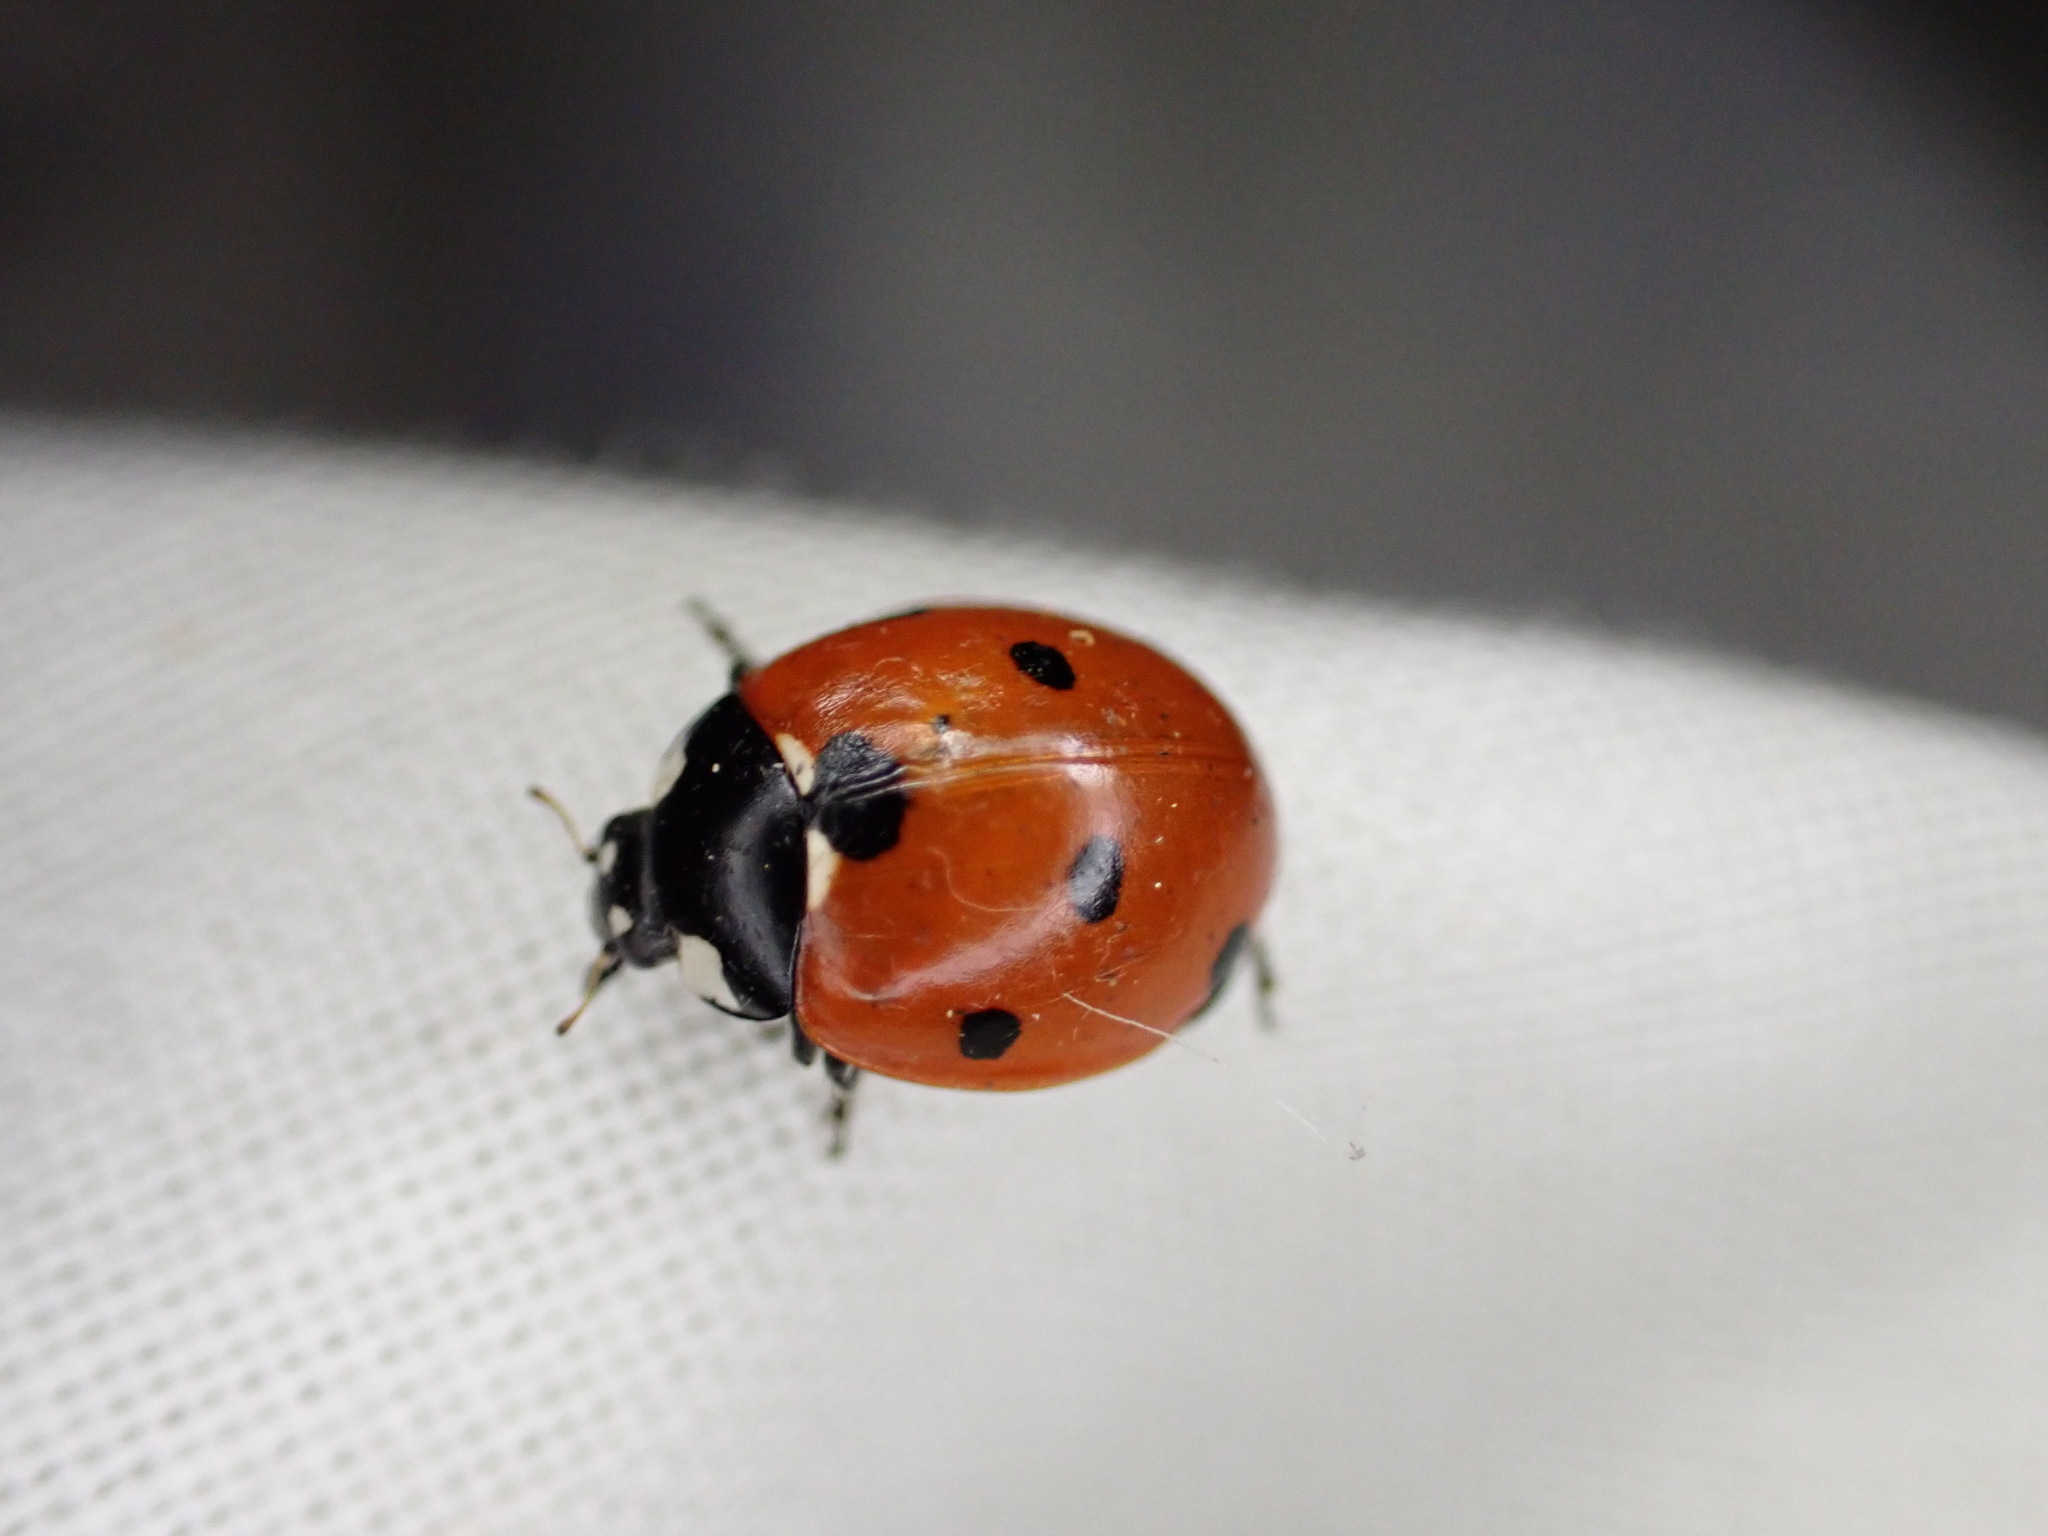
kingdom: Animalia
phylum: Arthropoda
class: Insecta
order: Coleoptera
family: Coccinellidae
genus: Coccinella
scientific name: Coccinella septempunctata
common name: Sevenspotted lady beetle
